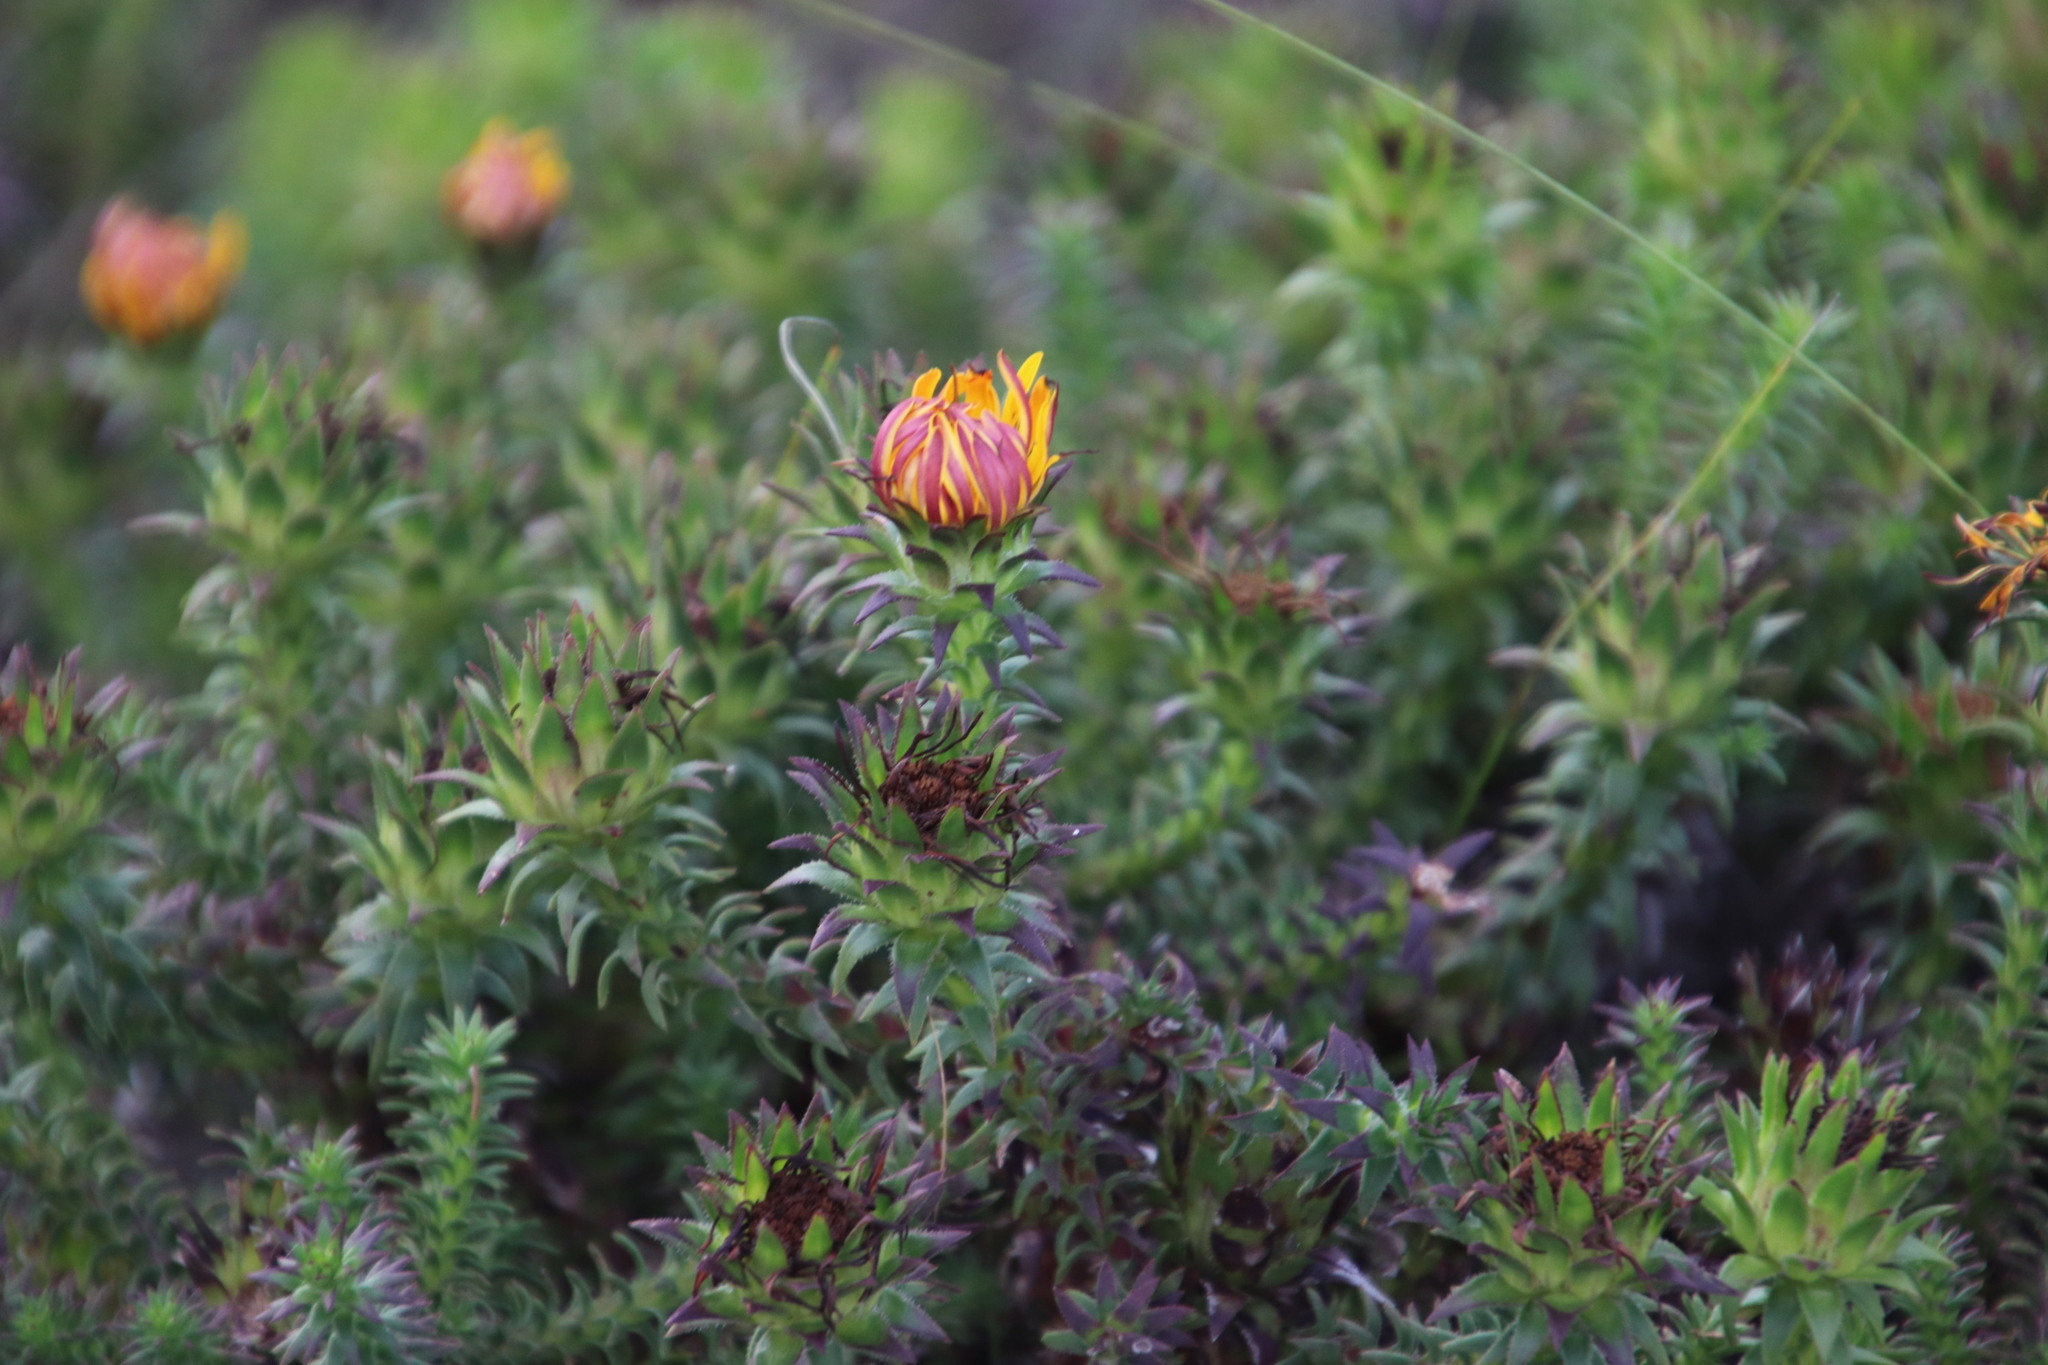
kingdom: Plantae
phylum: Tracheophyta
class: Magnoliopsida
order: Asterales
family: Asteraceae
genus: Oedera
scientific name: Oedera capensis
